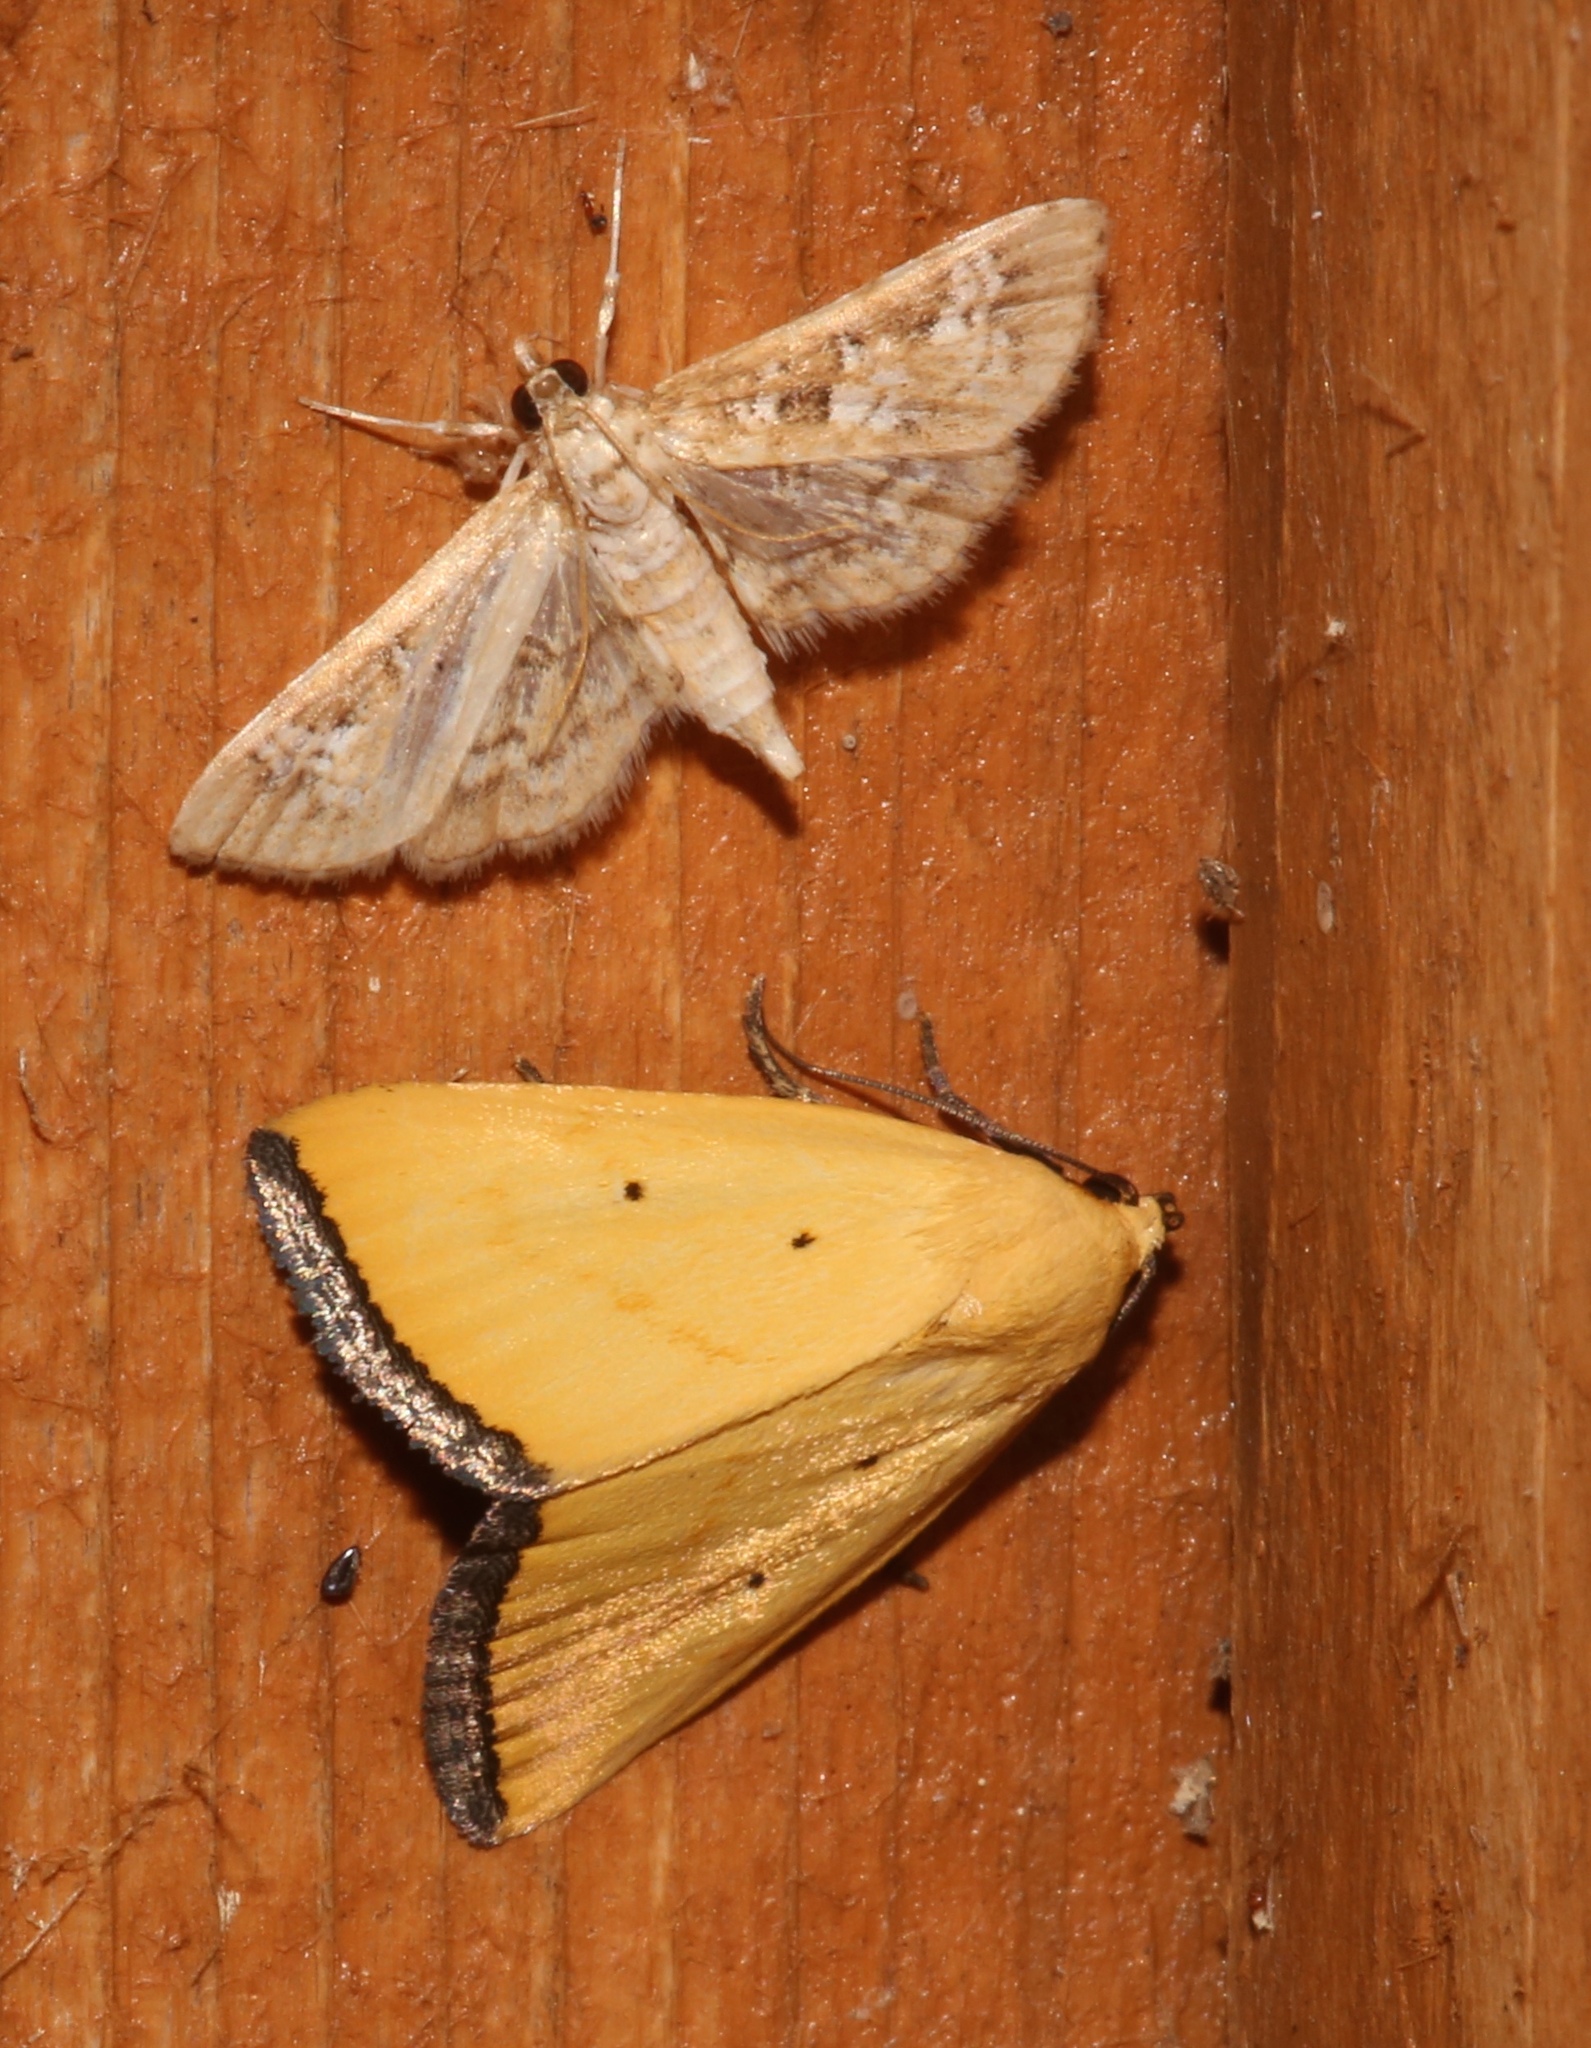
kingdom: Animalia
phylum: Arthropoda
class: Insecta
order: Lepidoptera
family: Noctuidae
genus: Marimatha
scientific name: Marimatha tripuncta
